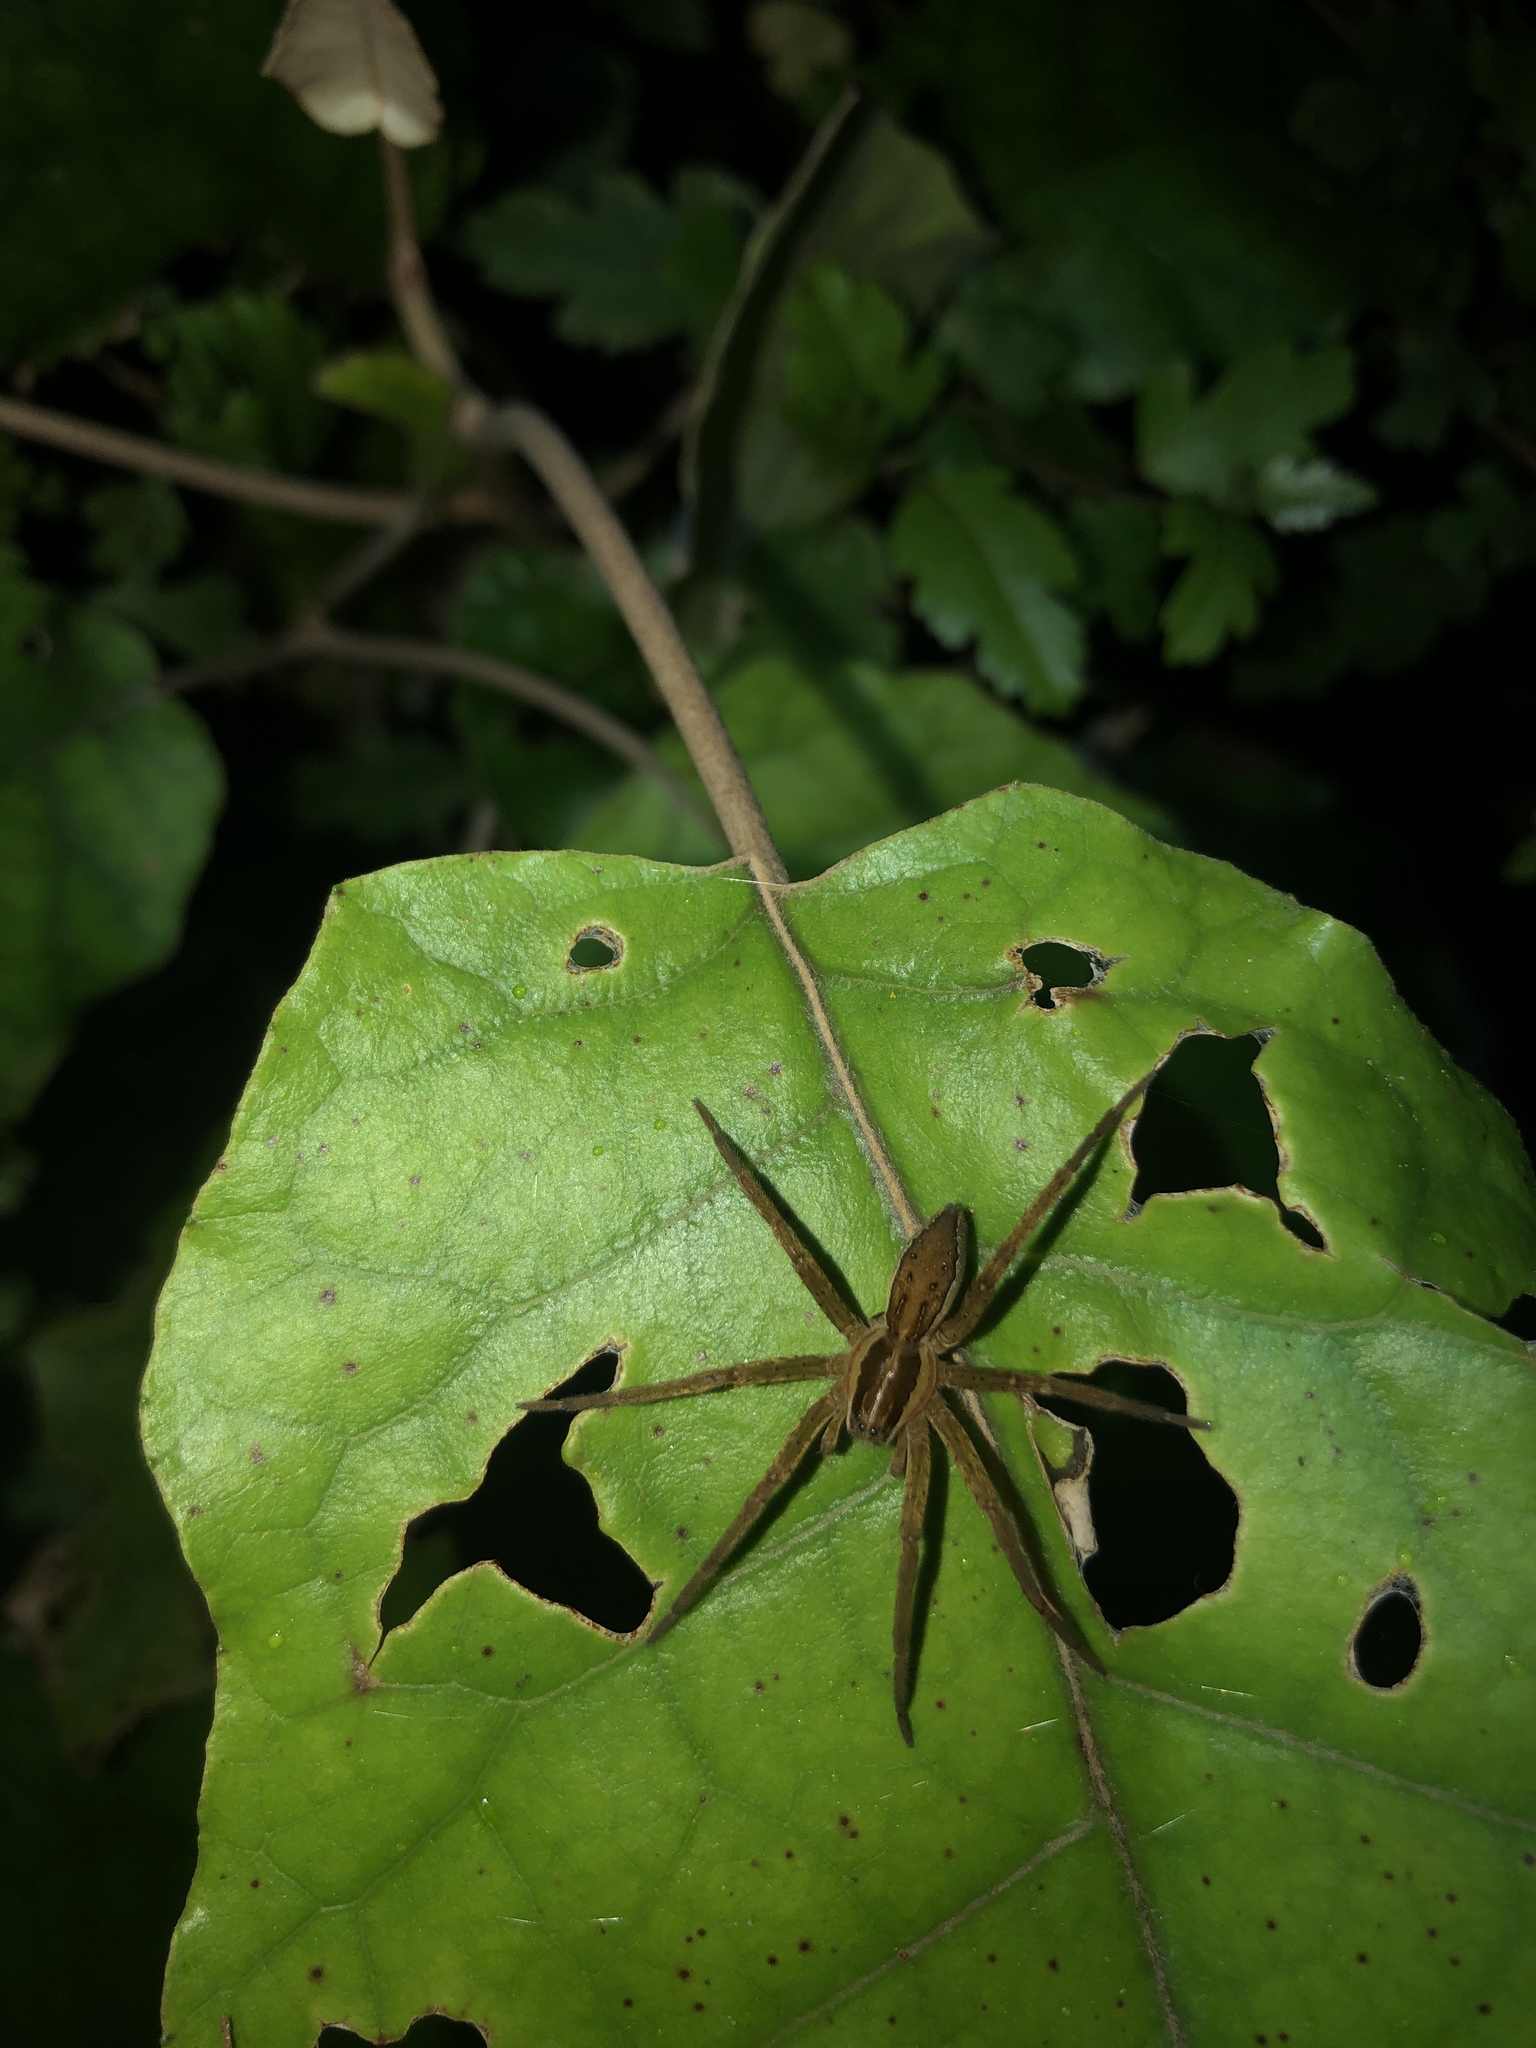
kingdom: Animalia
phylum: Arthropoda
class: Arachnida
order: Araneae
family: Pisauridae
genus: Dolomedes
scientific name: Dolomedes minor
